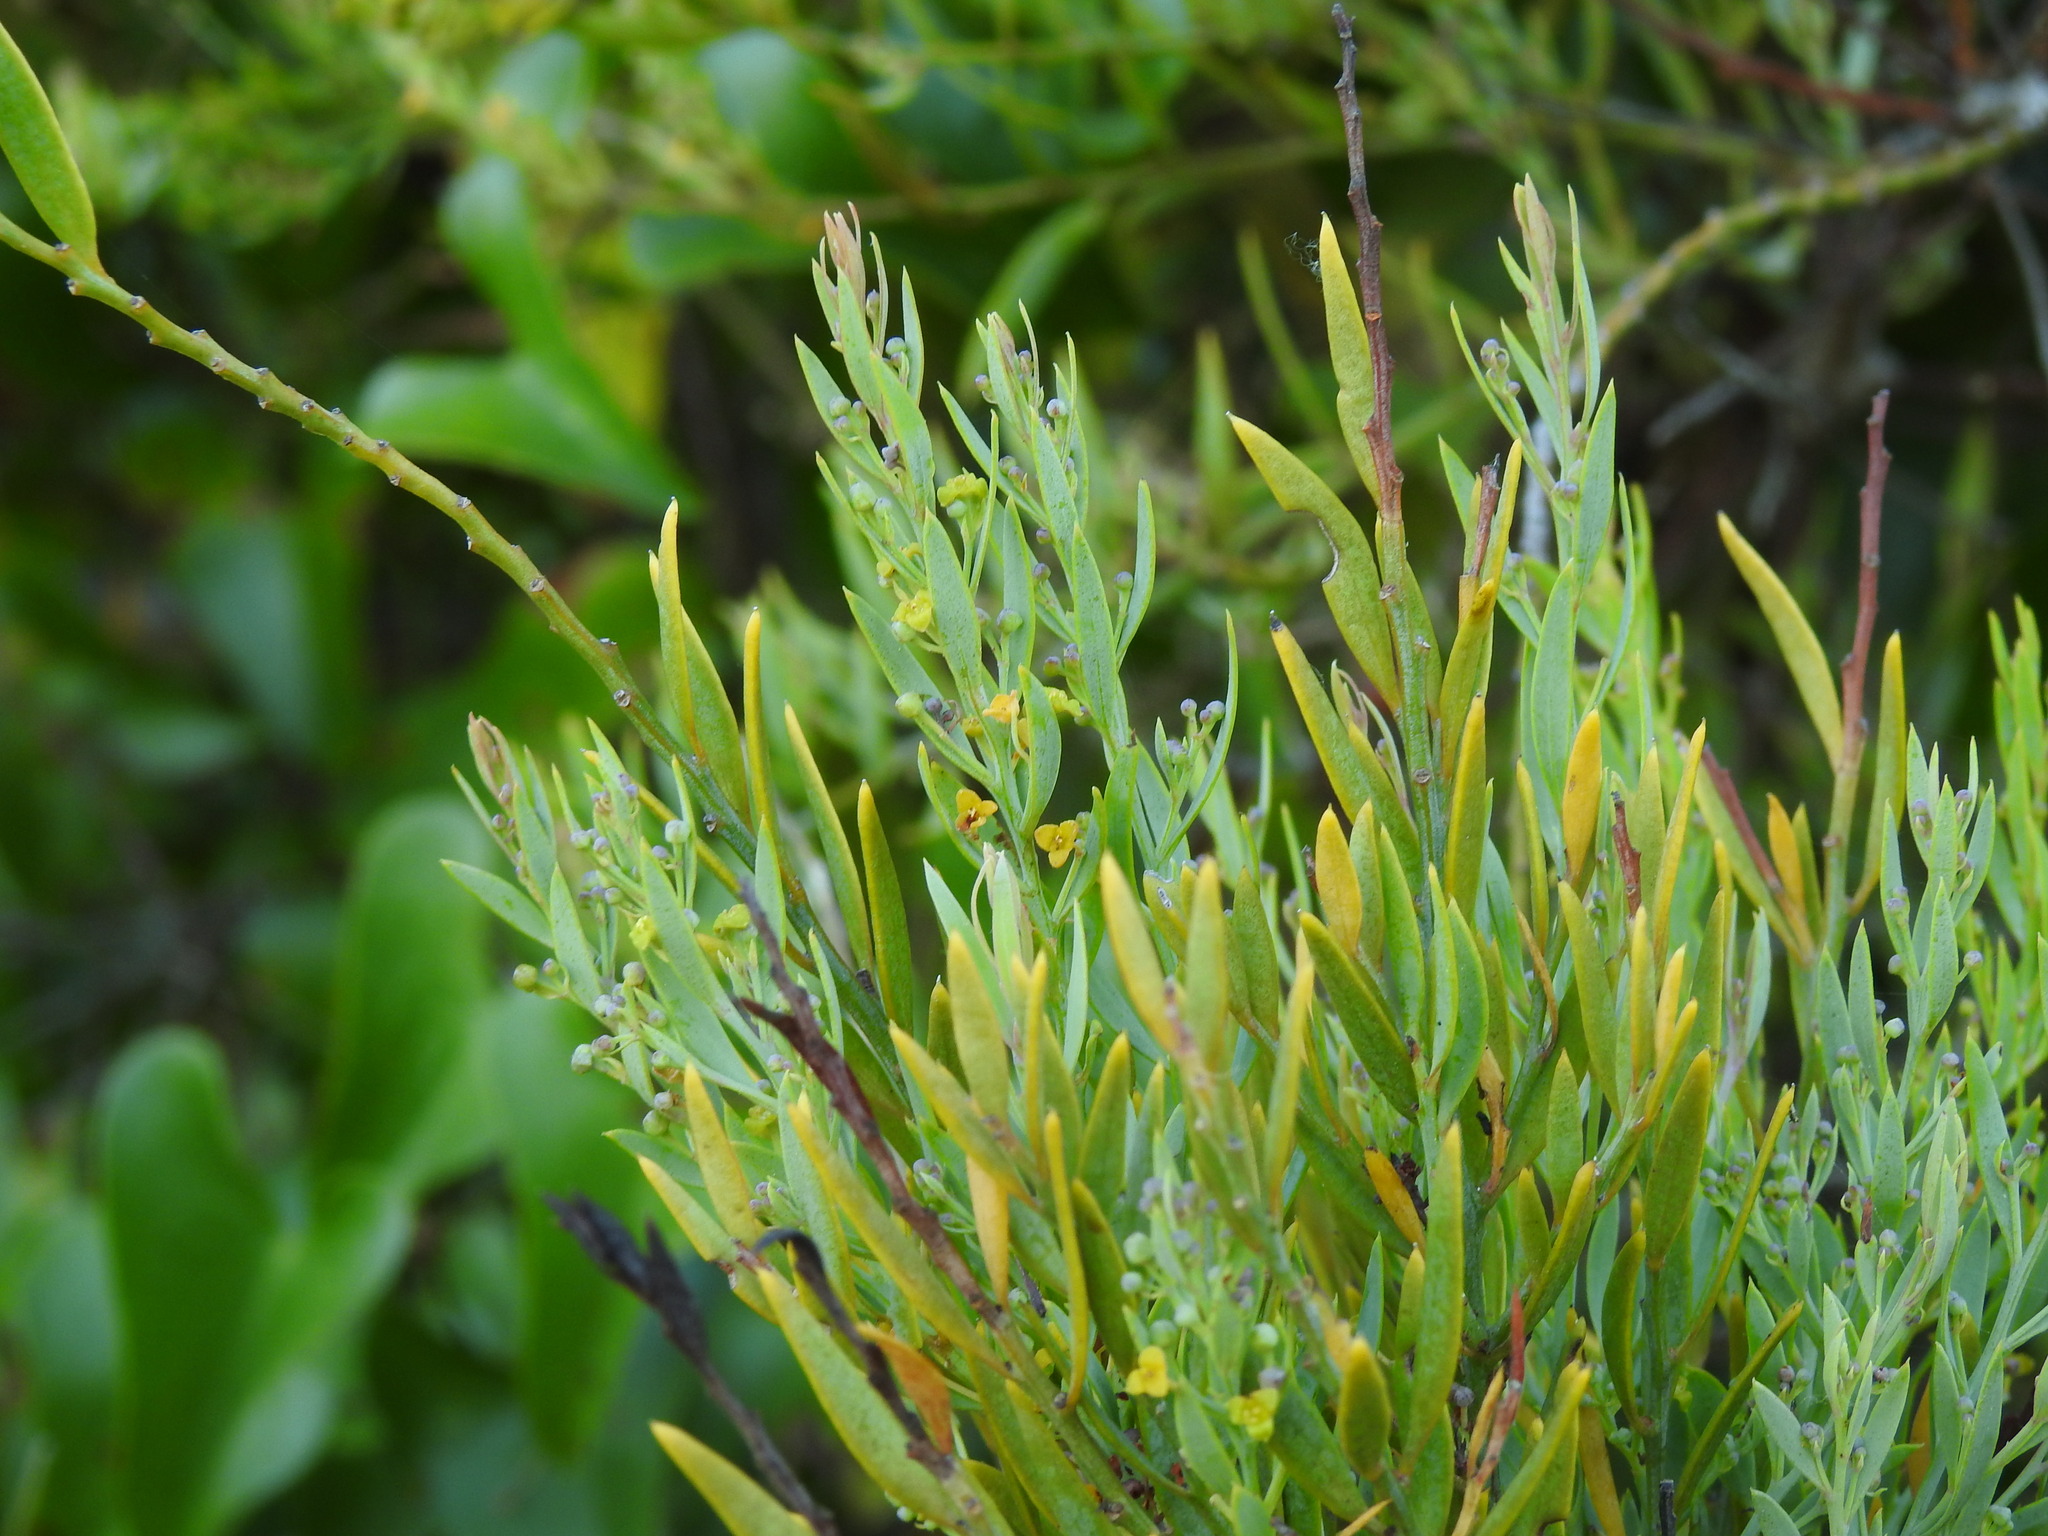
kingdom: Plantae
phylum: Tracheophyta
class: Magnoliopsida
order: Santalales
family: Santalaceae
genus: Osyris
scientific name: Osyris lanceolata
